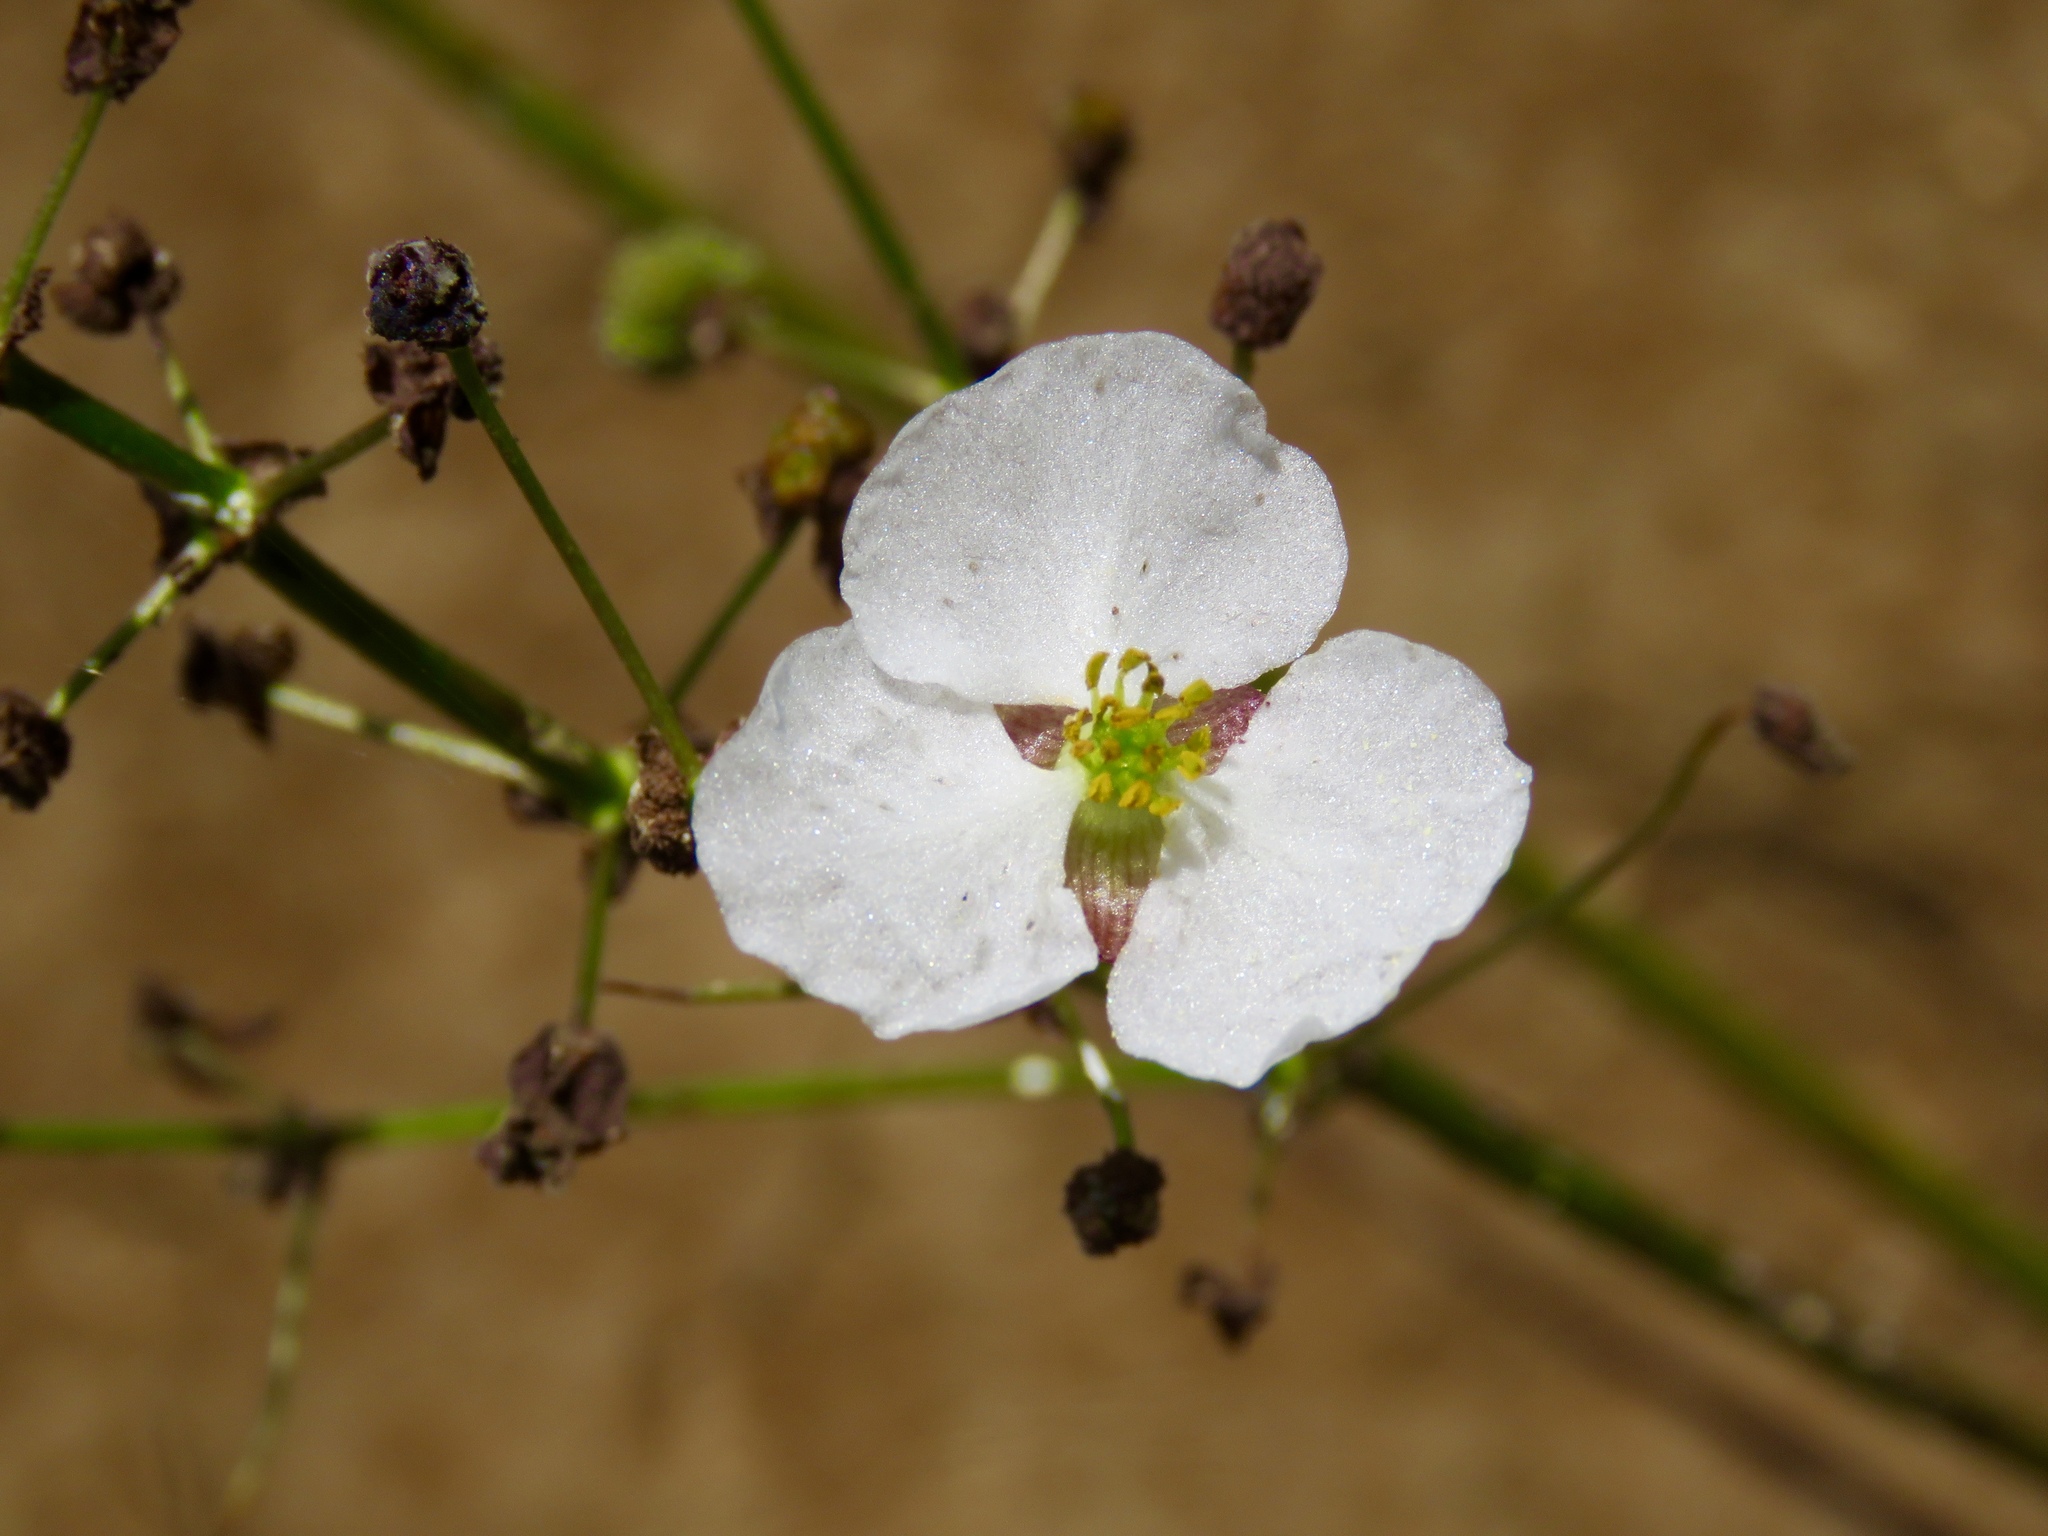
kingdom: Plantae
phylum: Tracheophyta
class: Liliopsida
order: Alismatales
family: Alismataceae
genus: Sagittaria
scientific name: Sagittaria papillosa
